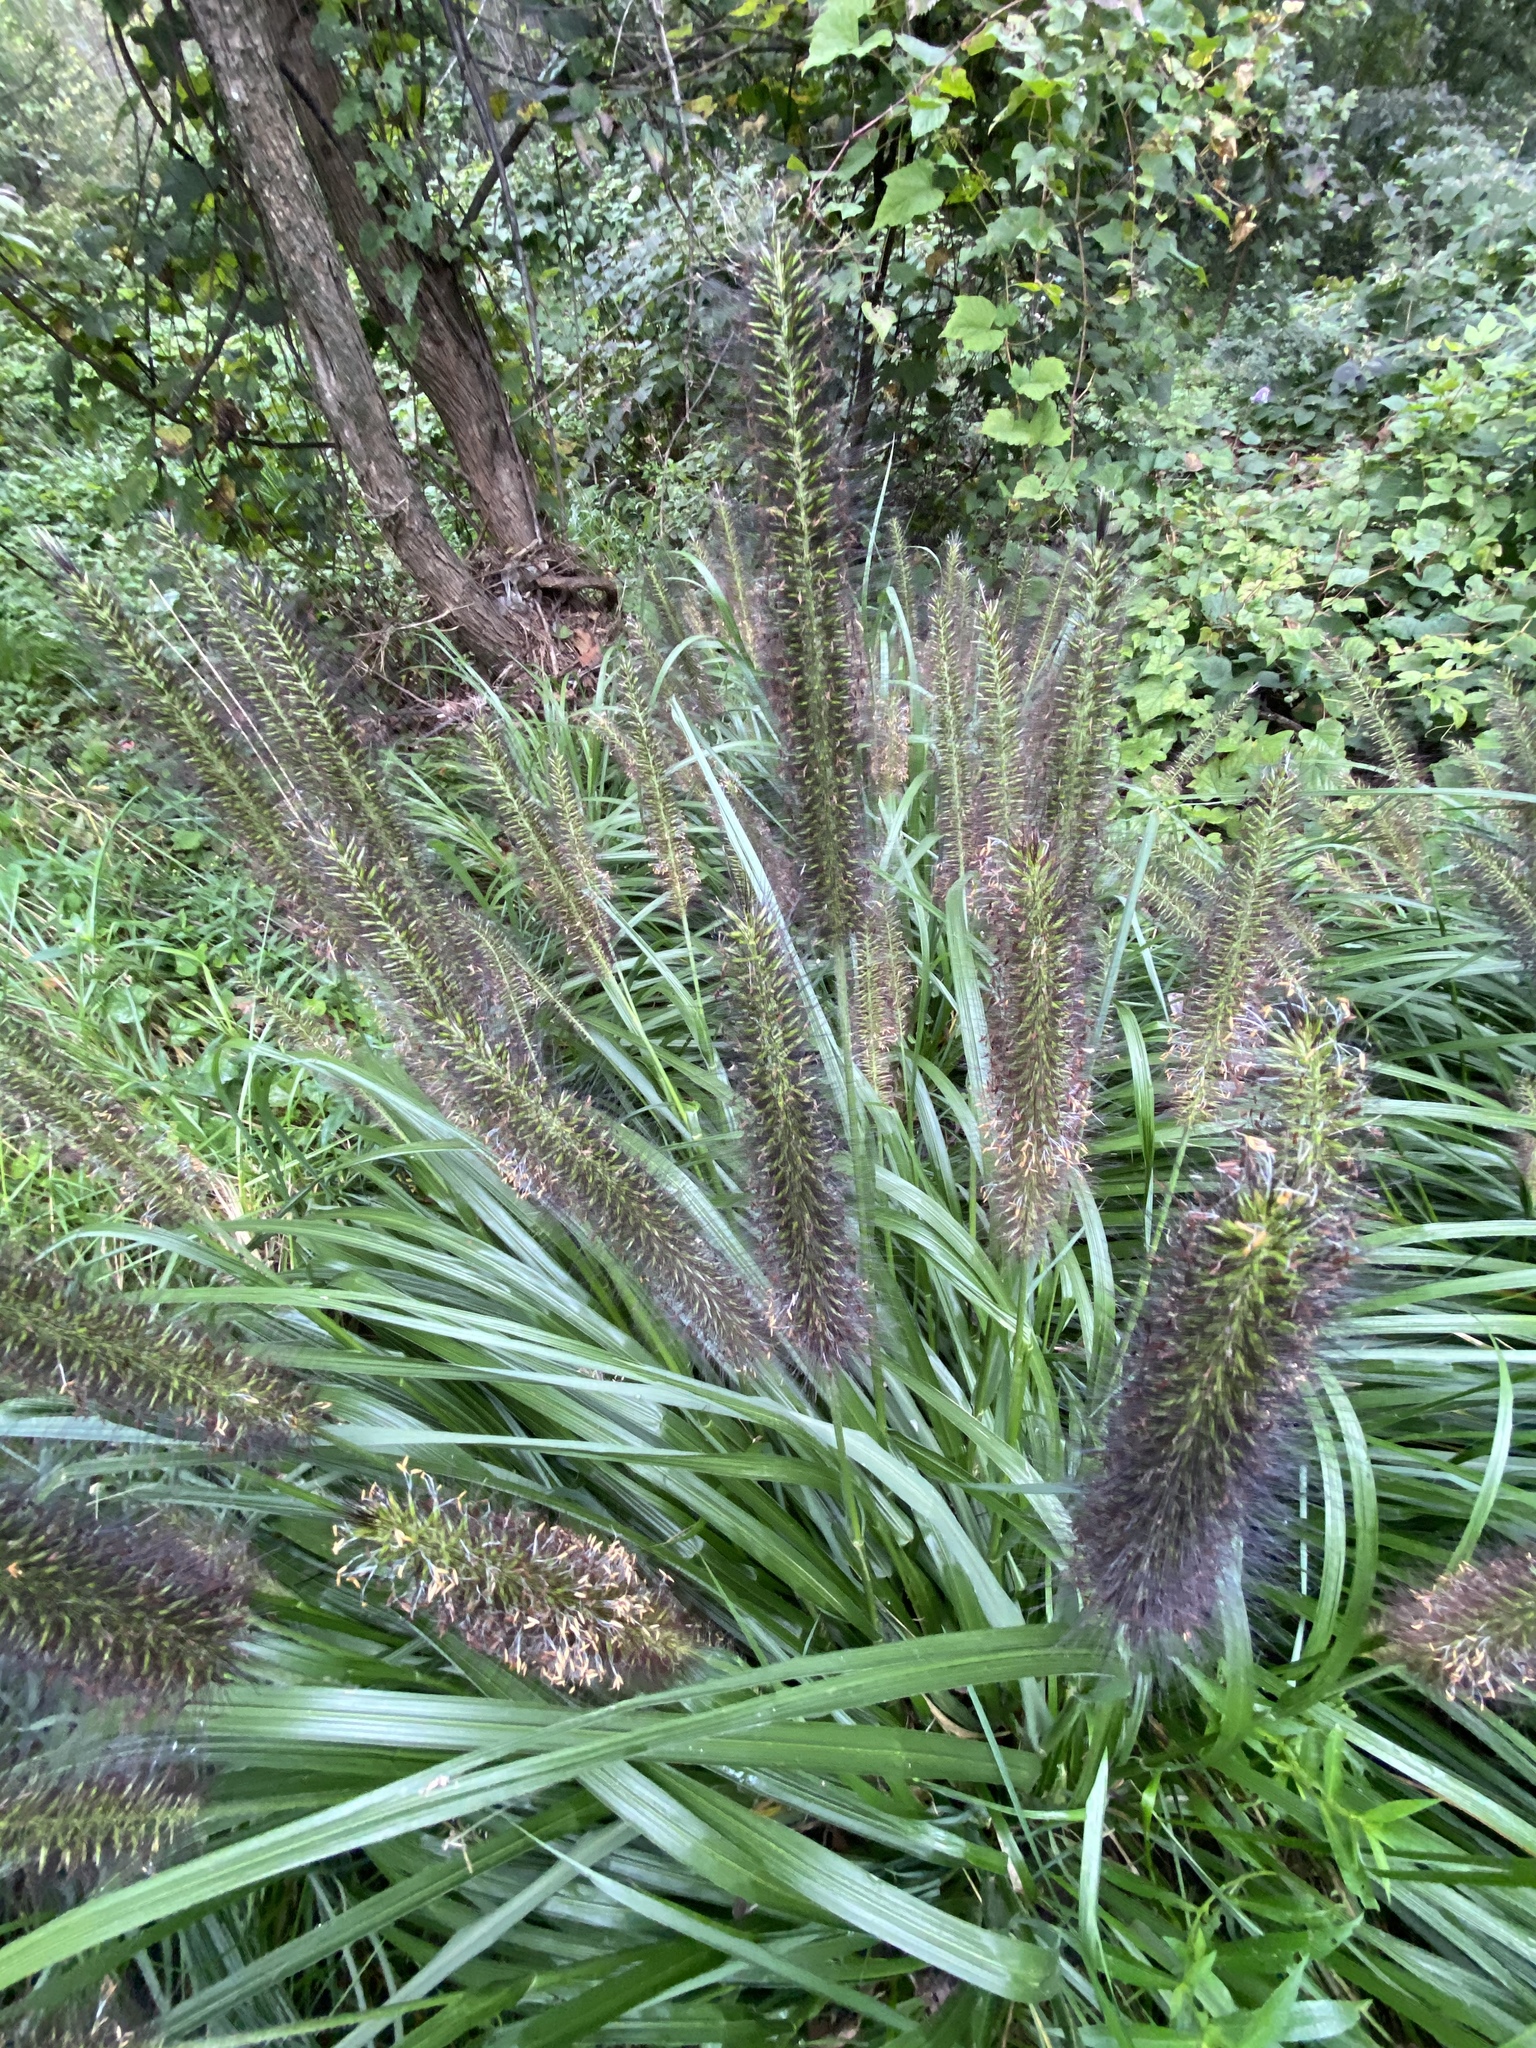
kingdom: Plantae
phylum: Tracheophyta
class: Liliopsida
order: Poales
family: Poaceae
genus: Cenchrus
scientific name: Cenchrus alopecuroides
